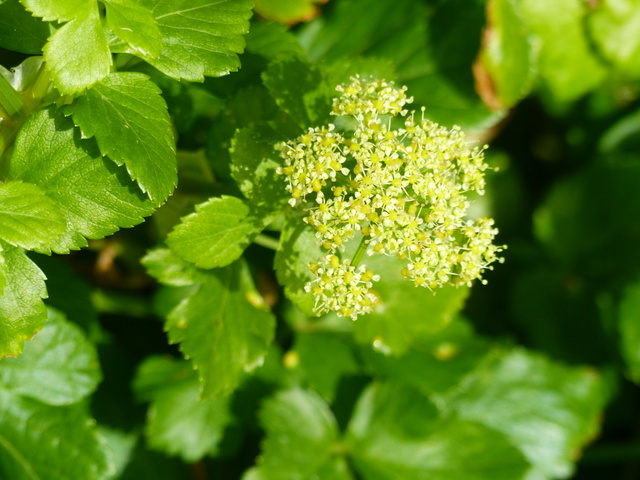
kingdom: Plantae
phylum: Tracheophyta
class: Magnoliopsida
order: Apiales
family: Apiaceae
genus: Smyrnium
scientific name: Smyrnium olusatrum
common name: Alexanders
